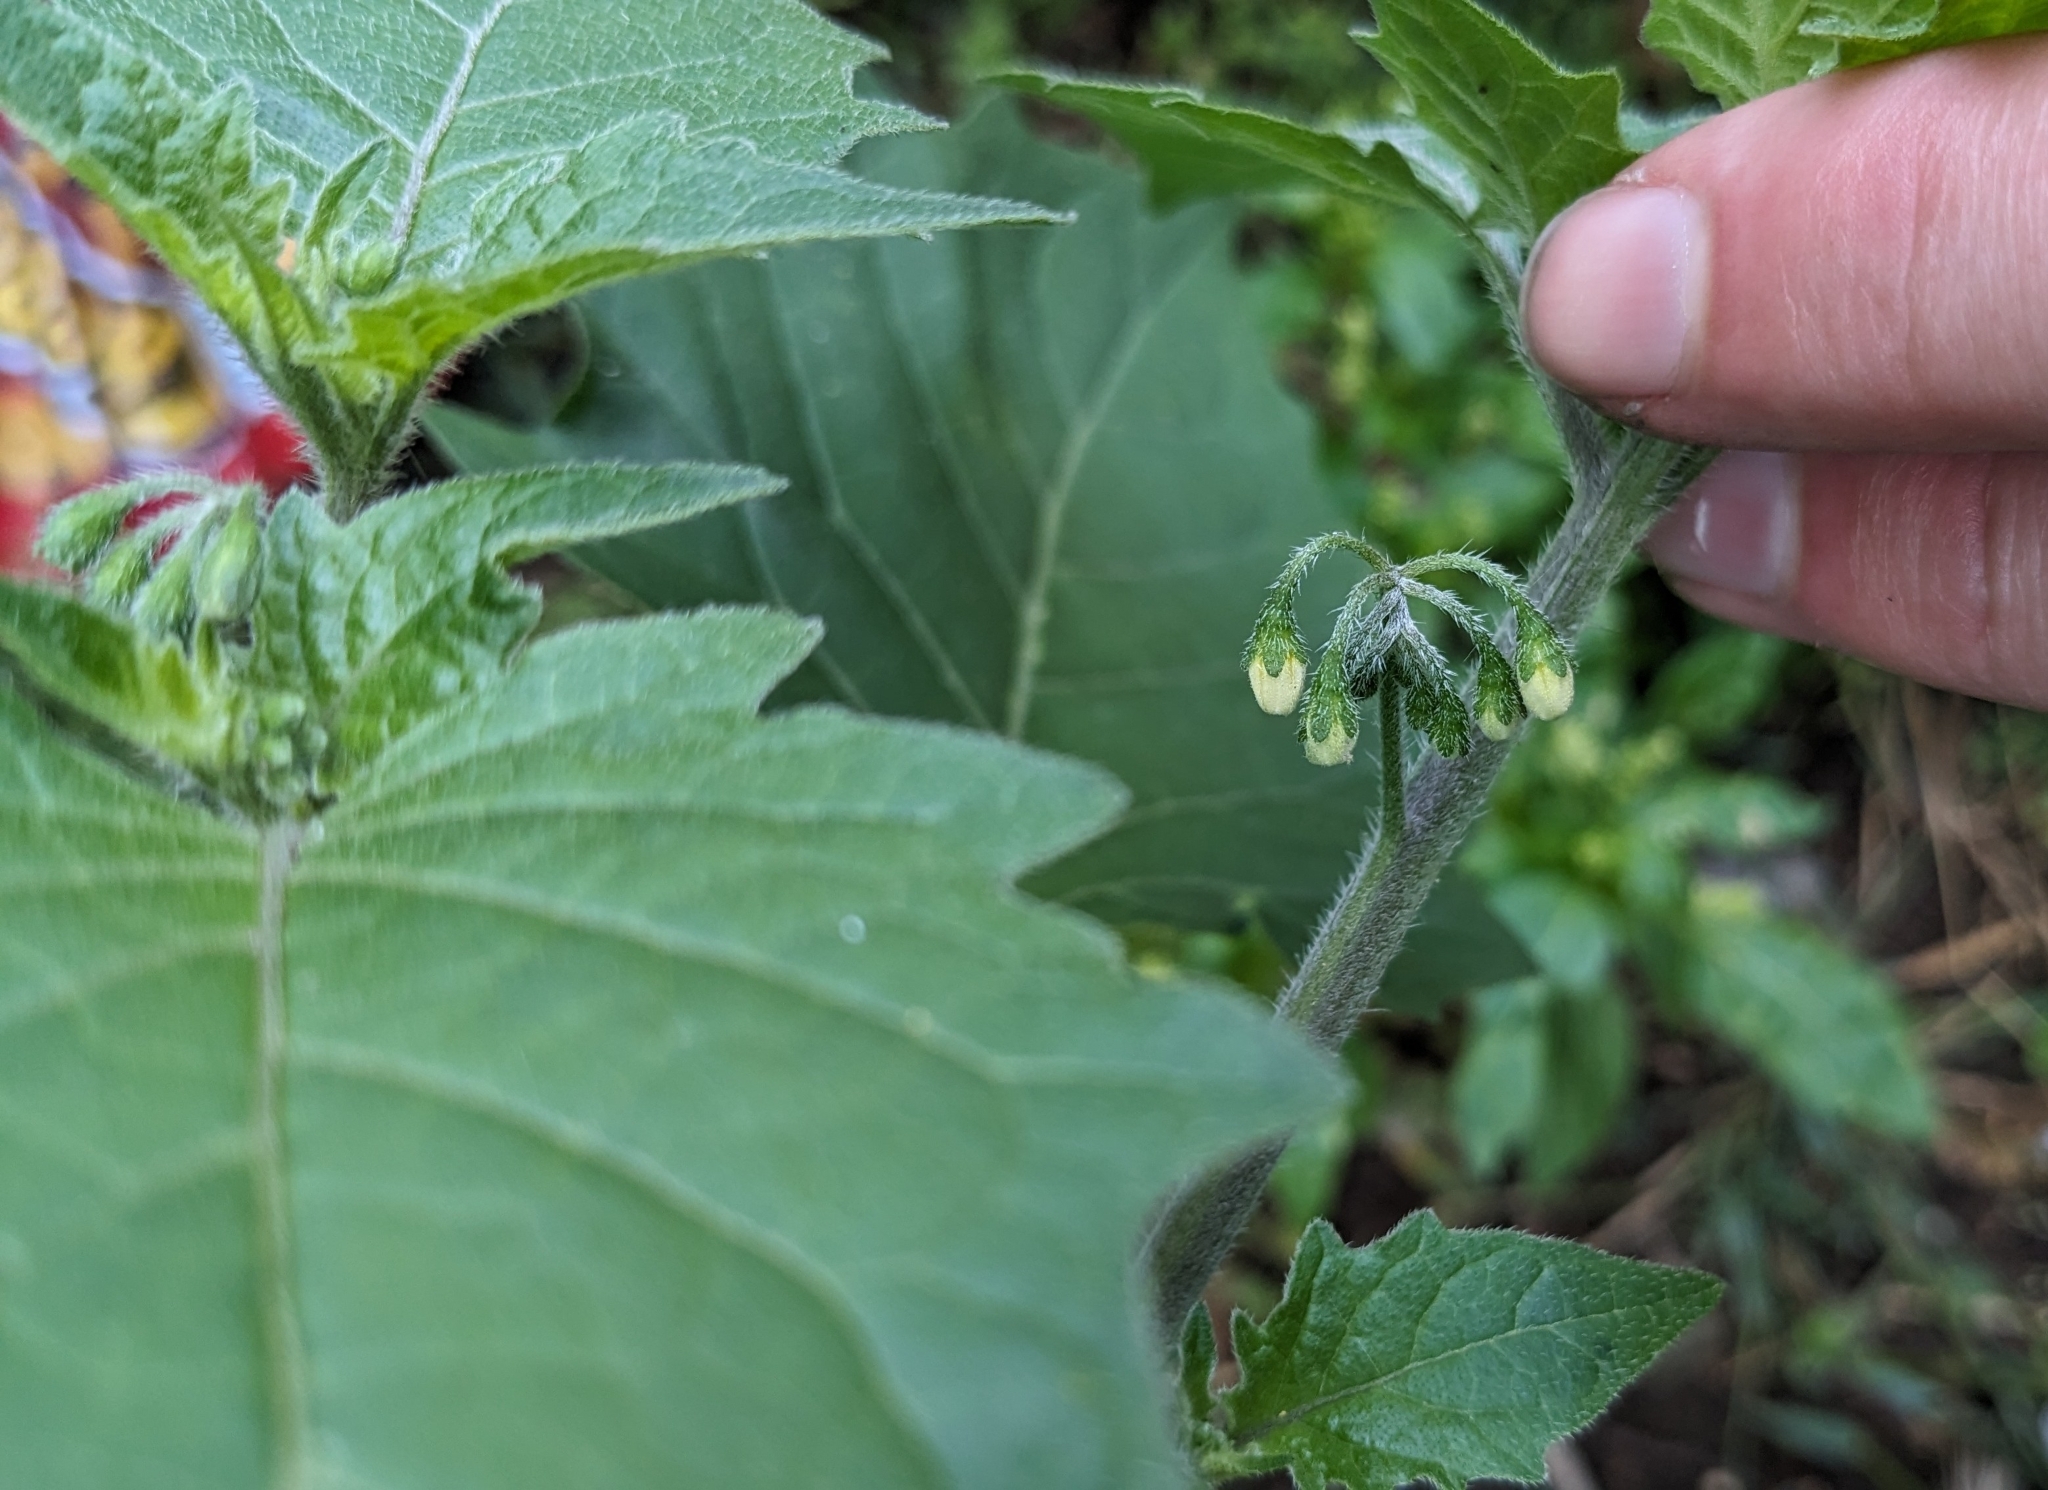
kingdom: Plantae
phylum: Tracheophyta
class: Magnoliopsida
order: Solanales
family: Solanaceae
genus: Solanum
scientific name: Solanum nigrum
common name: Black nightshade
